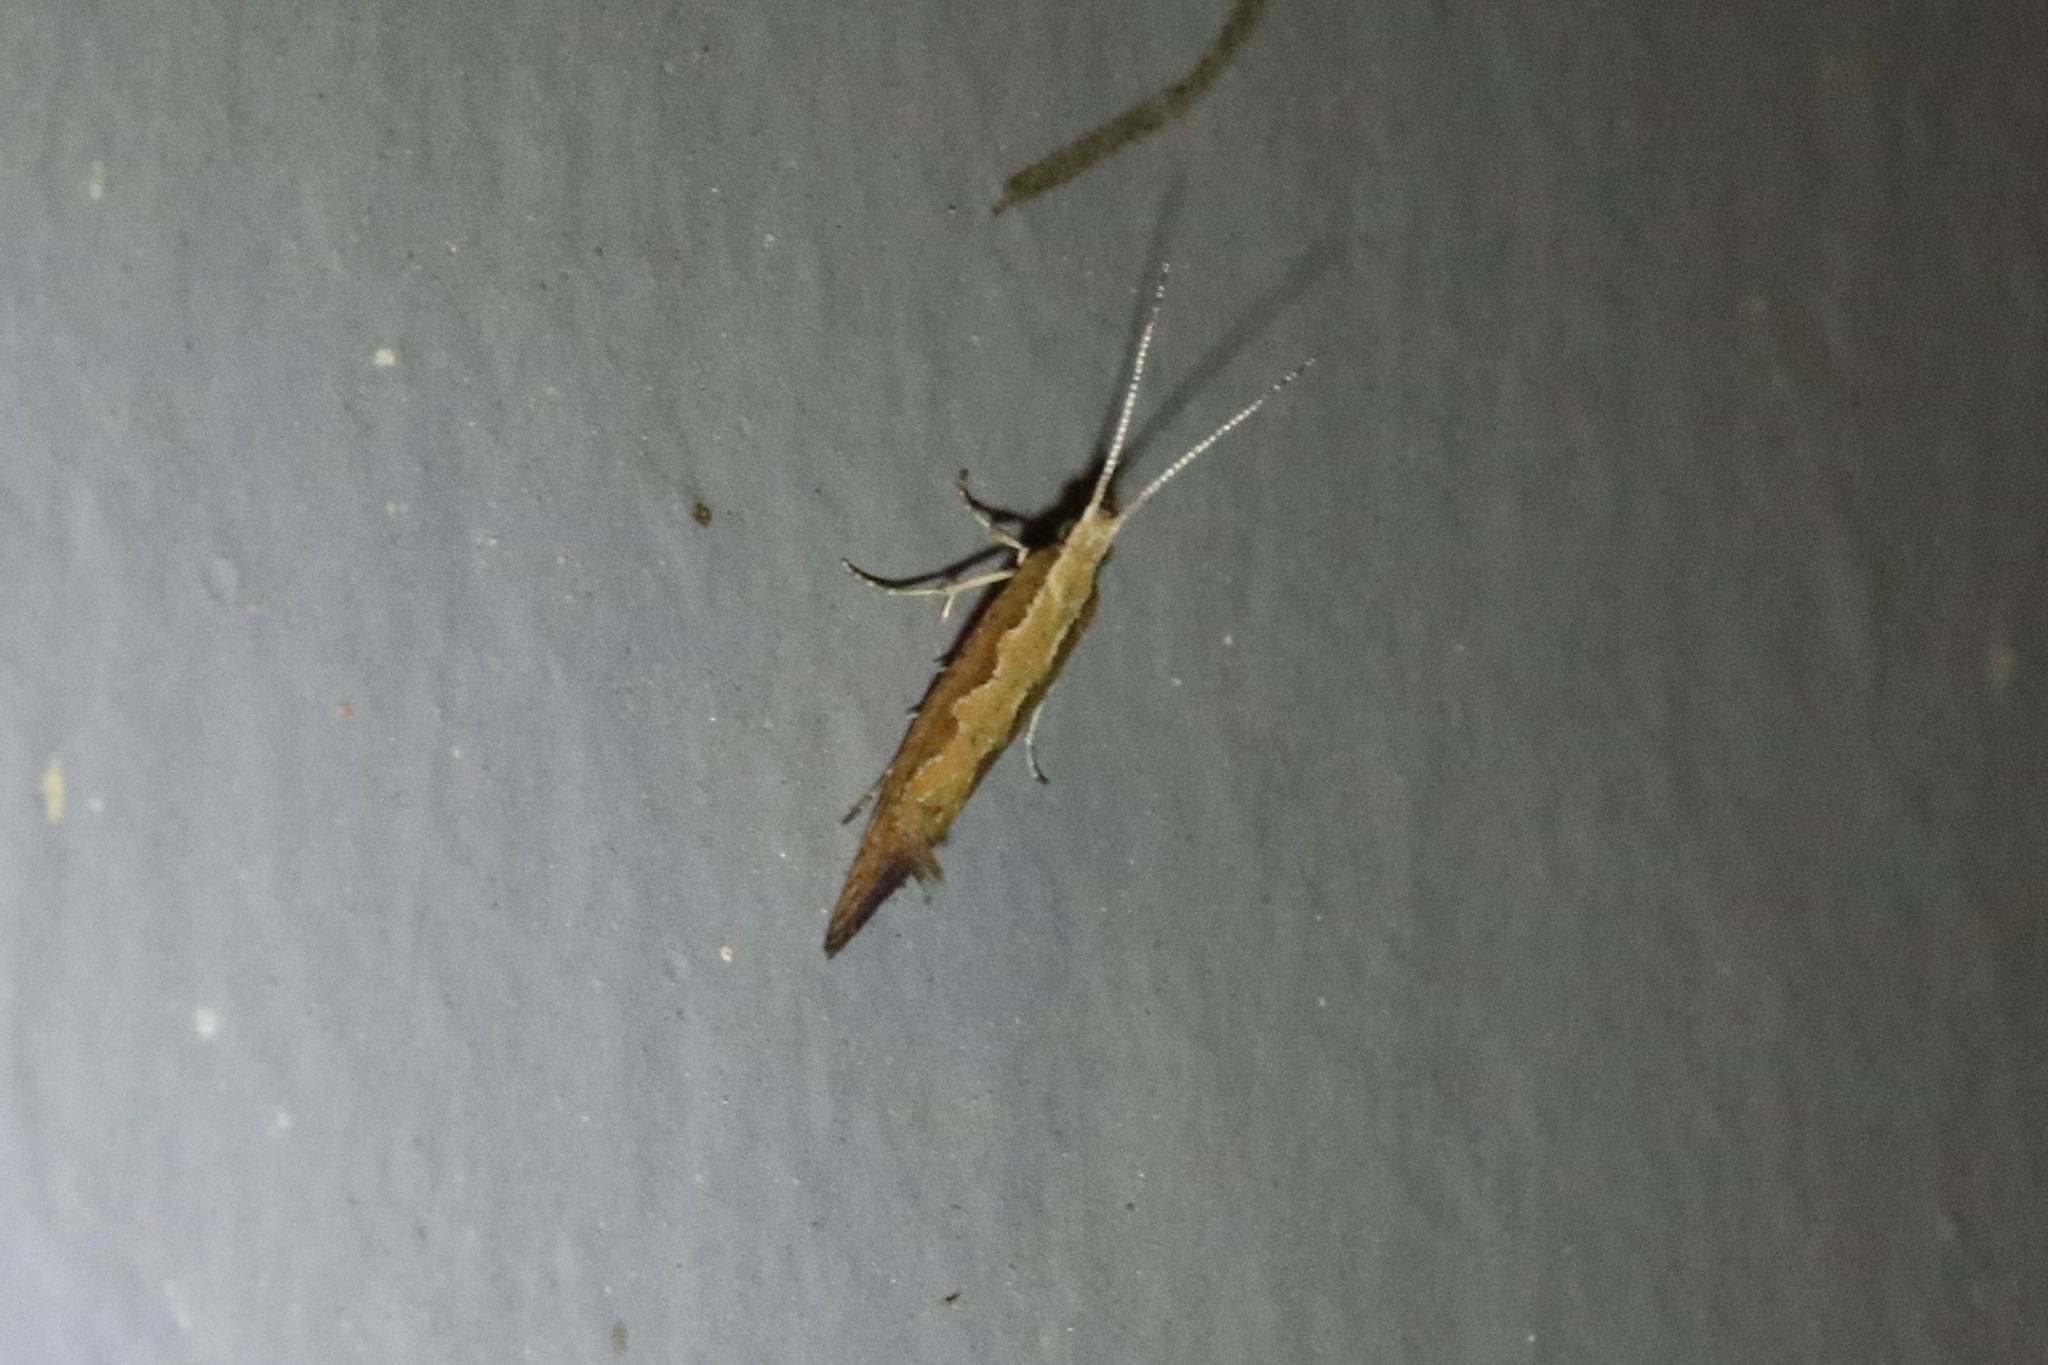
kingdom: Animalia
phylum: Arthropoda
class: Insecta
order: Lepidoptera
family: Plutellidae
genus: Plutella
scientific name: Plutella xylostella
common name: Diamond-back moth
